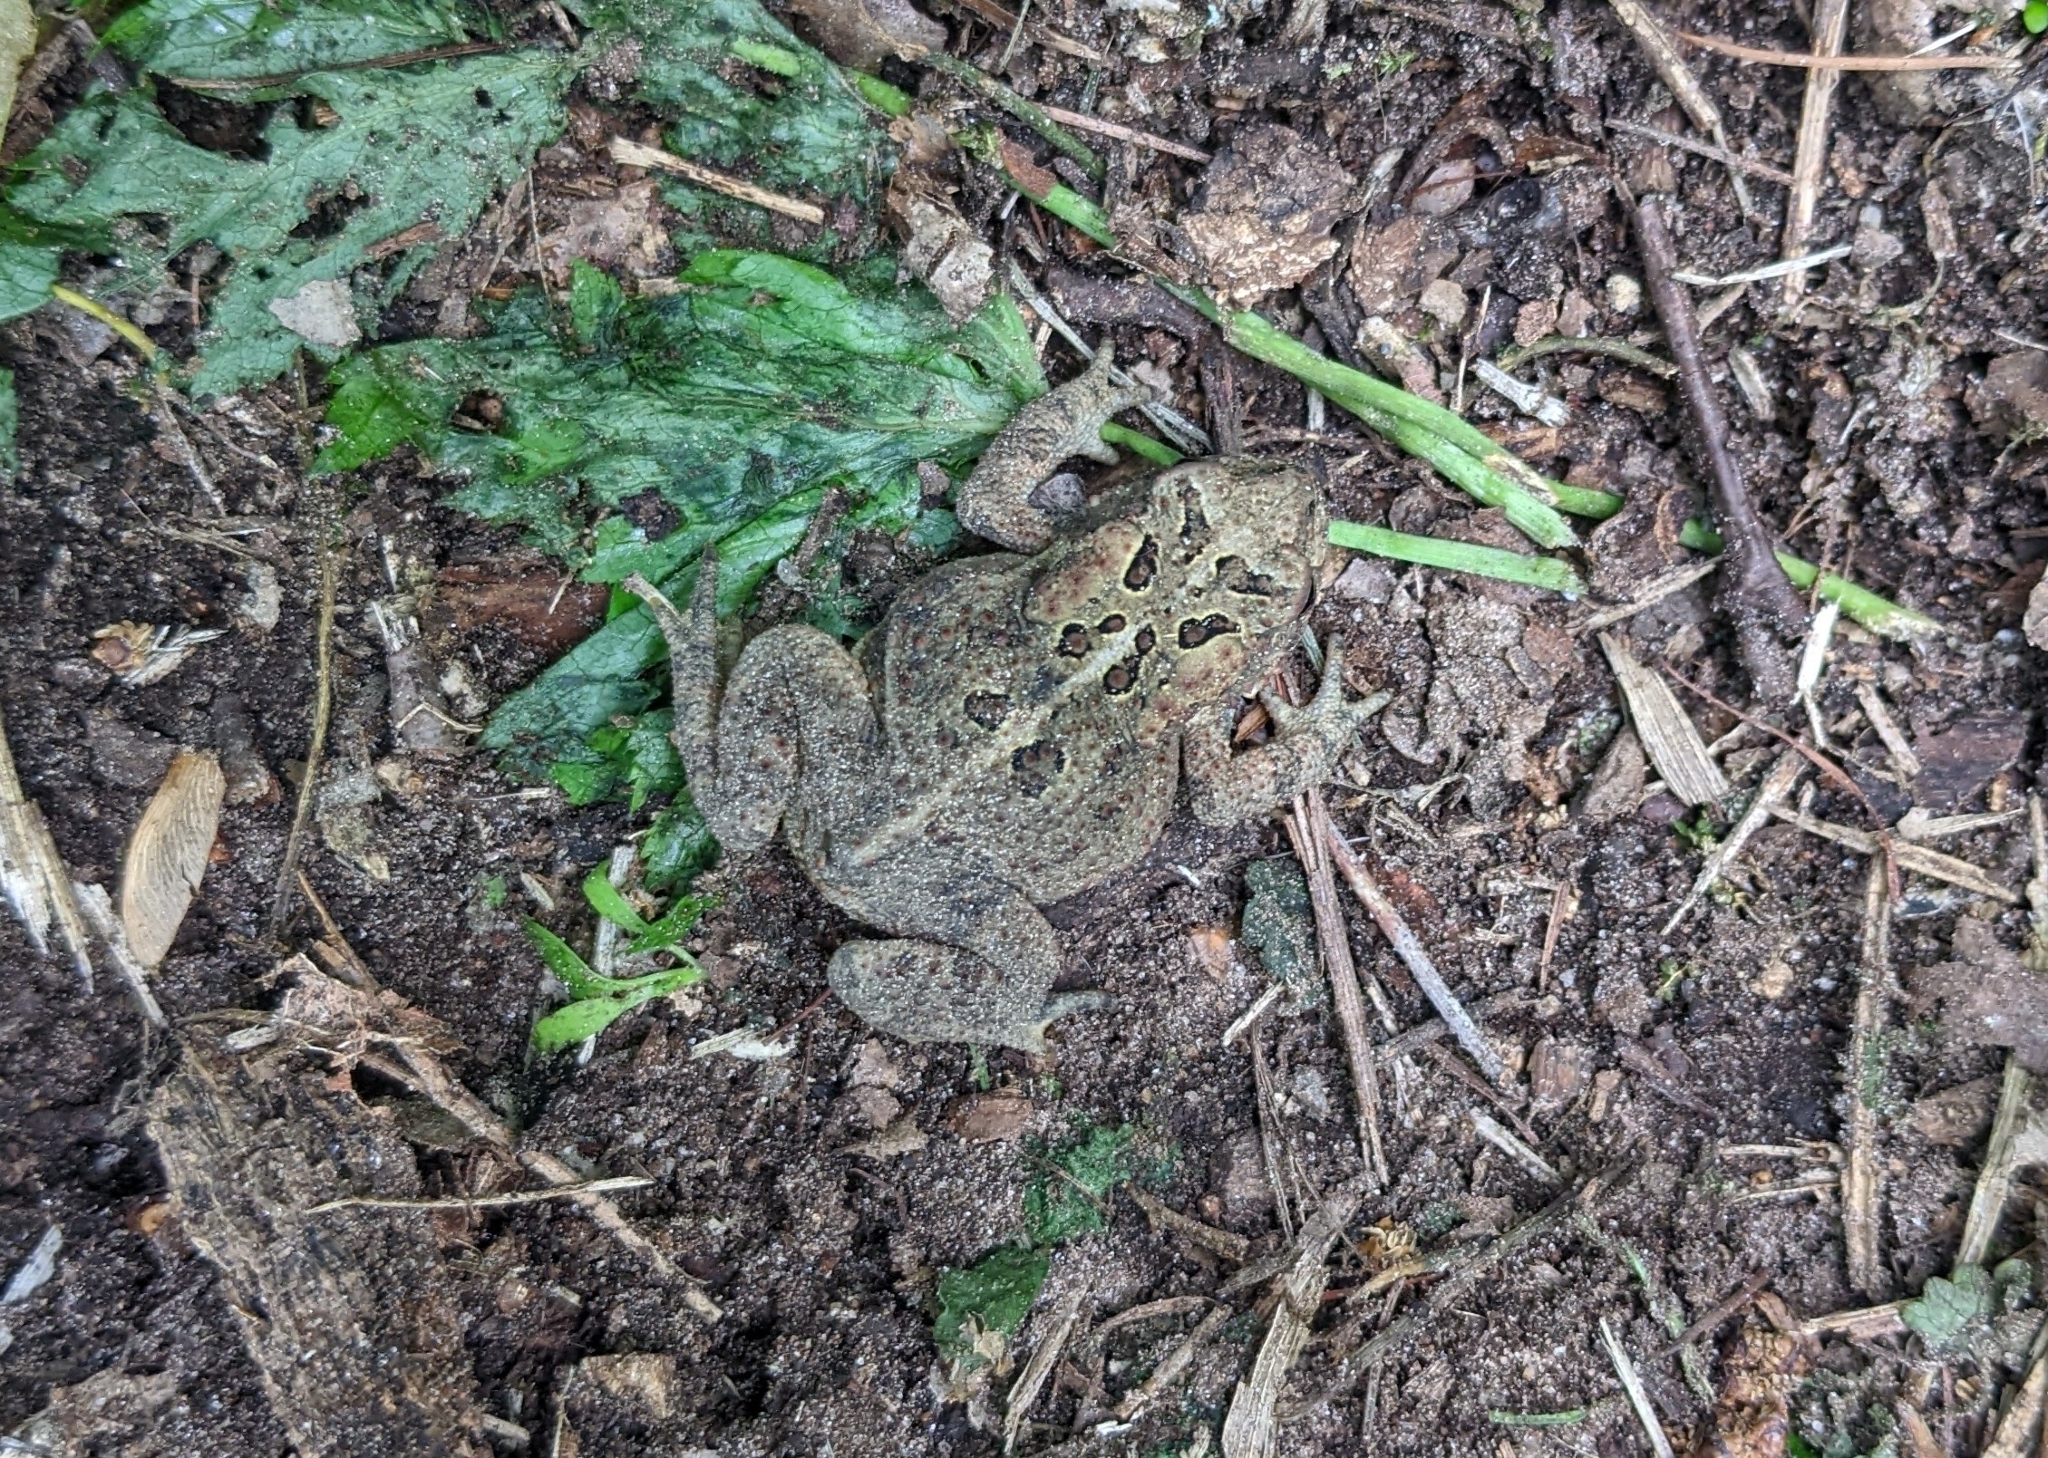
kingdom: Animalia
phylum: Chordata
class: Amphibia
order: Anura
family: Bufonidae
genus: Anaxyrus
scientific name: Anaxyrus americanus
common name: American toad
